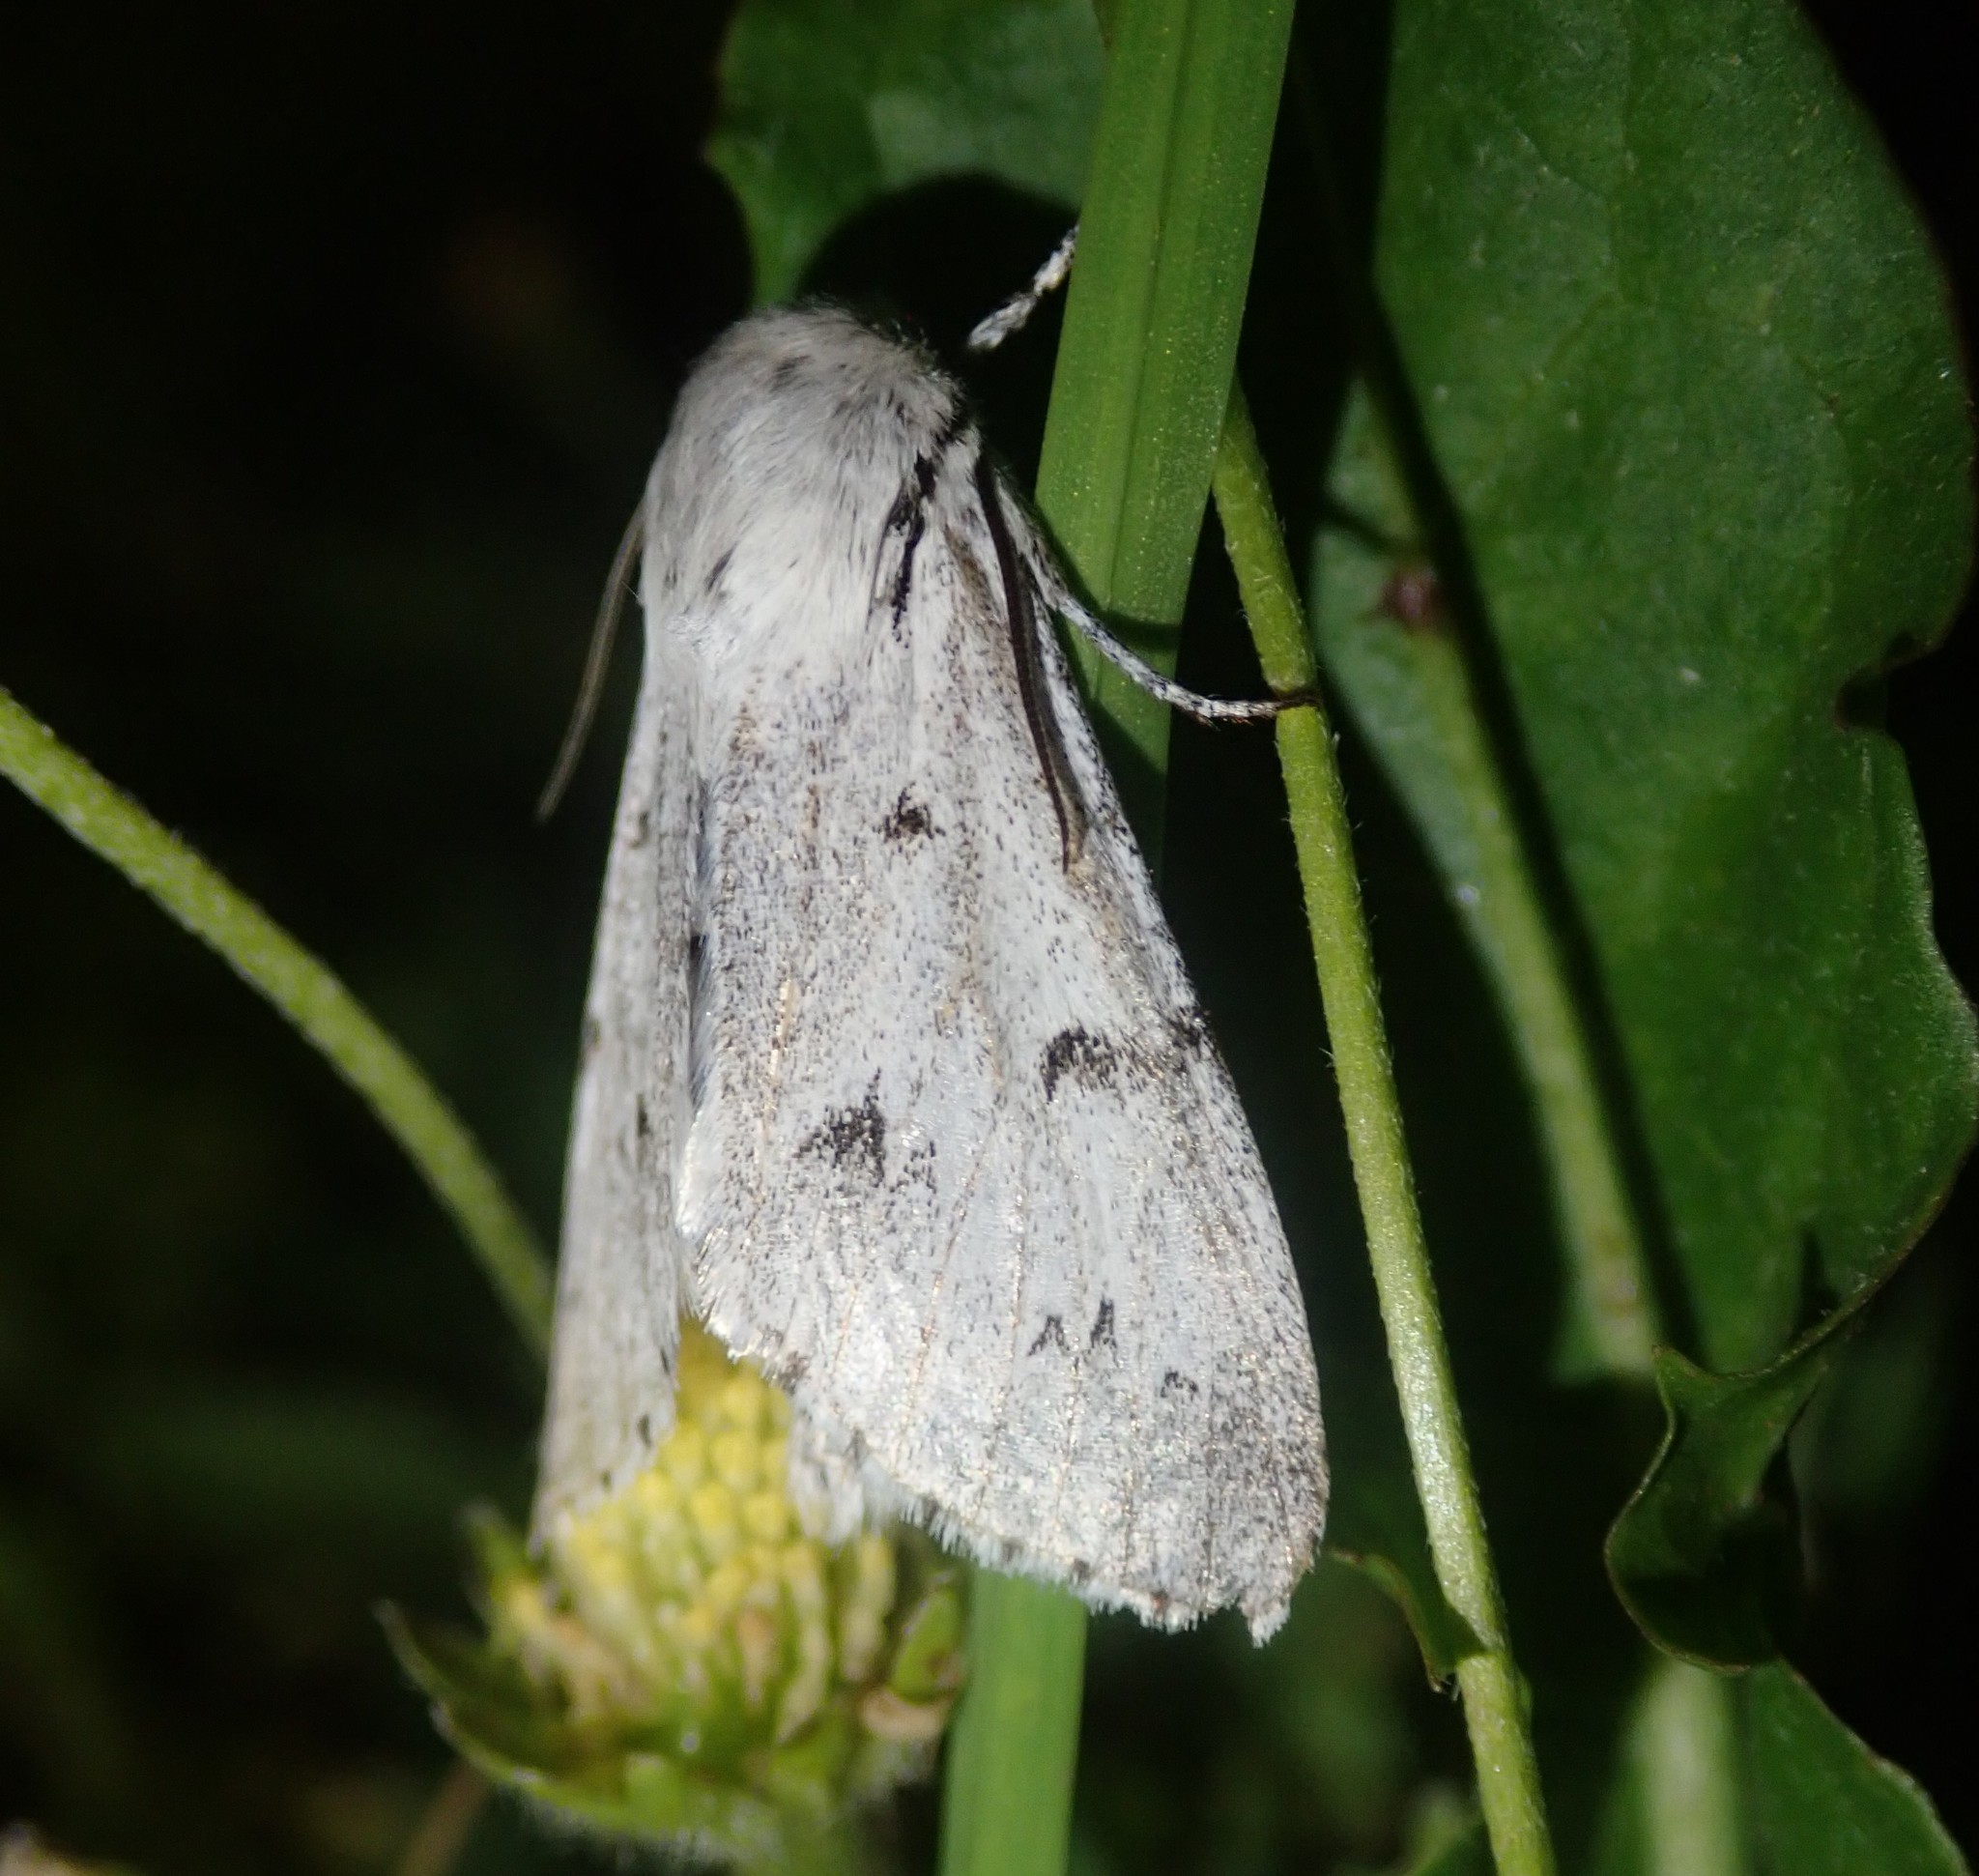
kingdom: Animalia
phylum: Arthropoda
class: Insecta
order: Lepidoptera
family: Noctuidae
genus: Acronicta
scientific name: Acronicta leporina
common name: Miller
